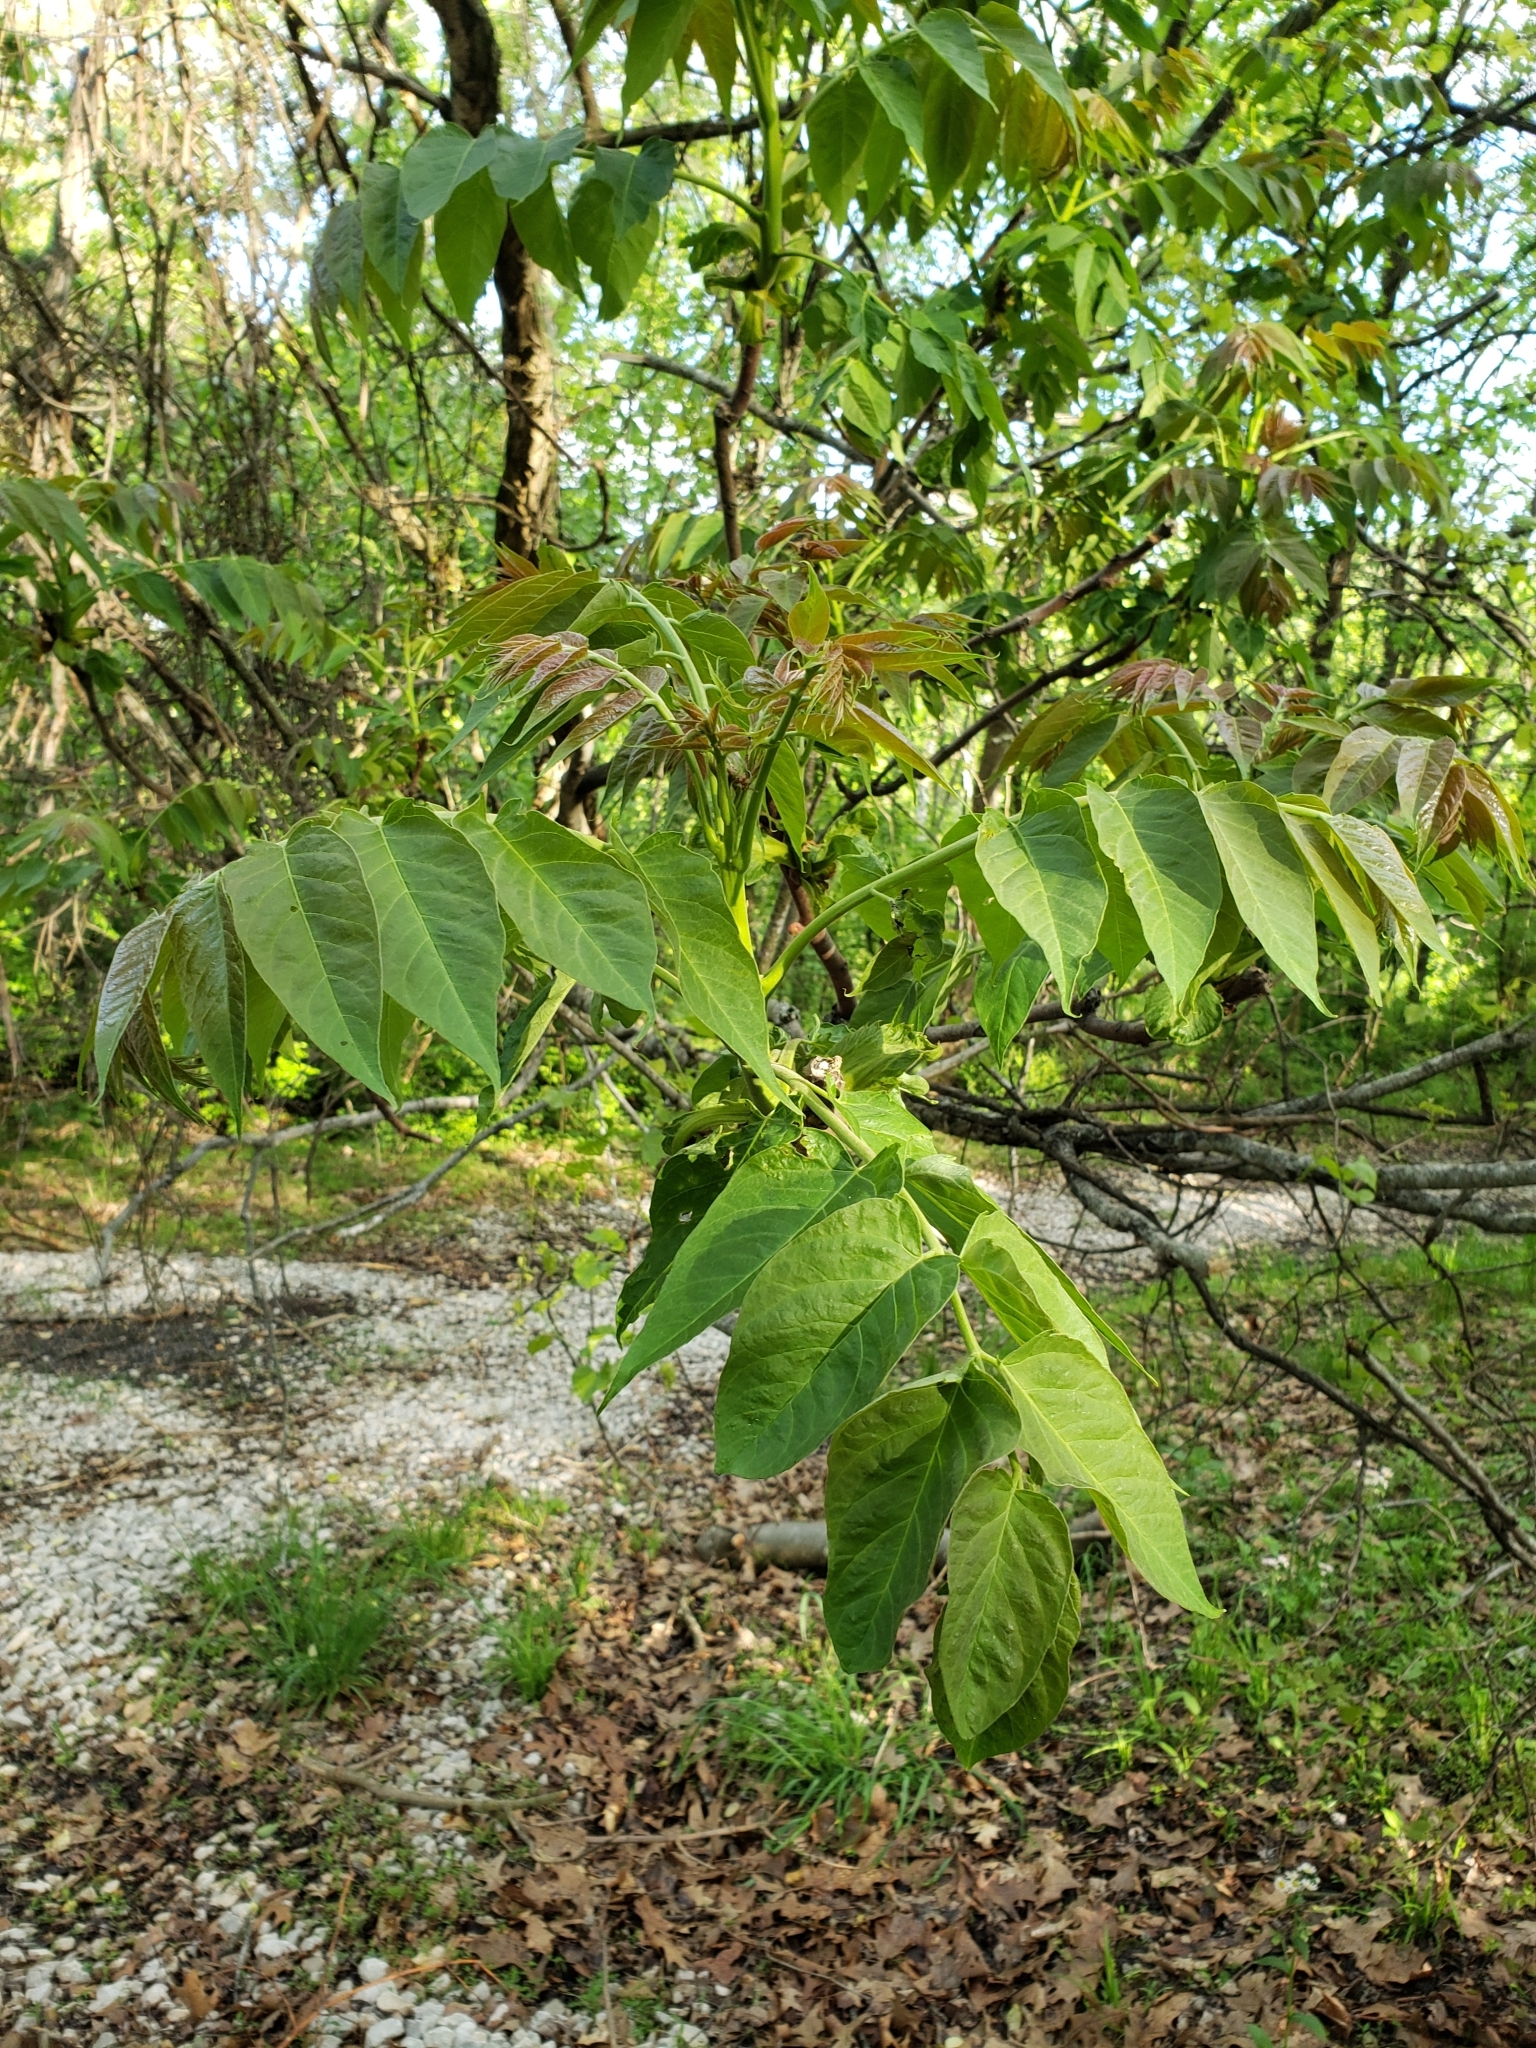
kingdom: Plantae
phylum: Tracheophyta
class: Magnoliopsida
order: Sapindales
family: Simaroubaceae
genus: Ailanthus
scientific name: Ailanthus altissima
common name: Tree-of-heaven
